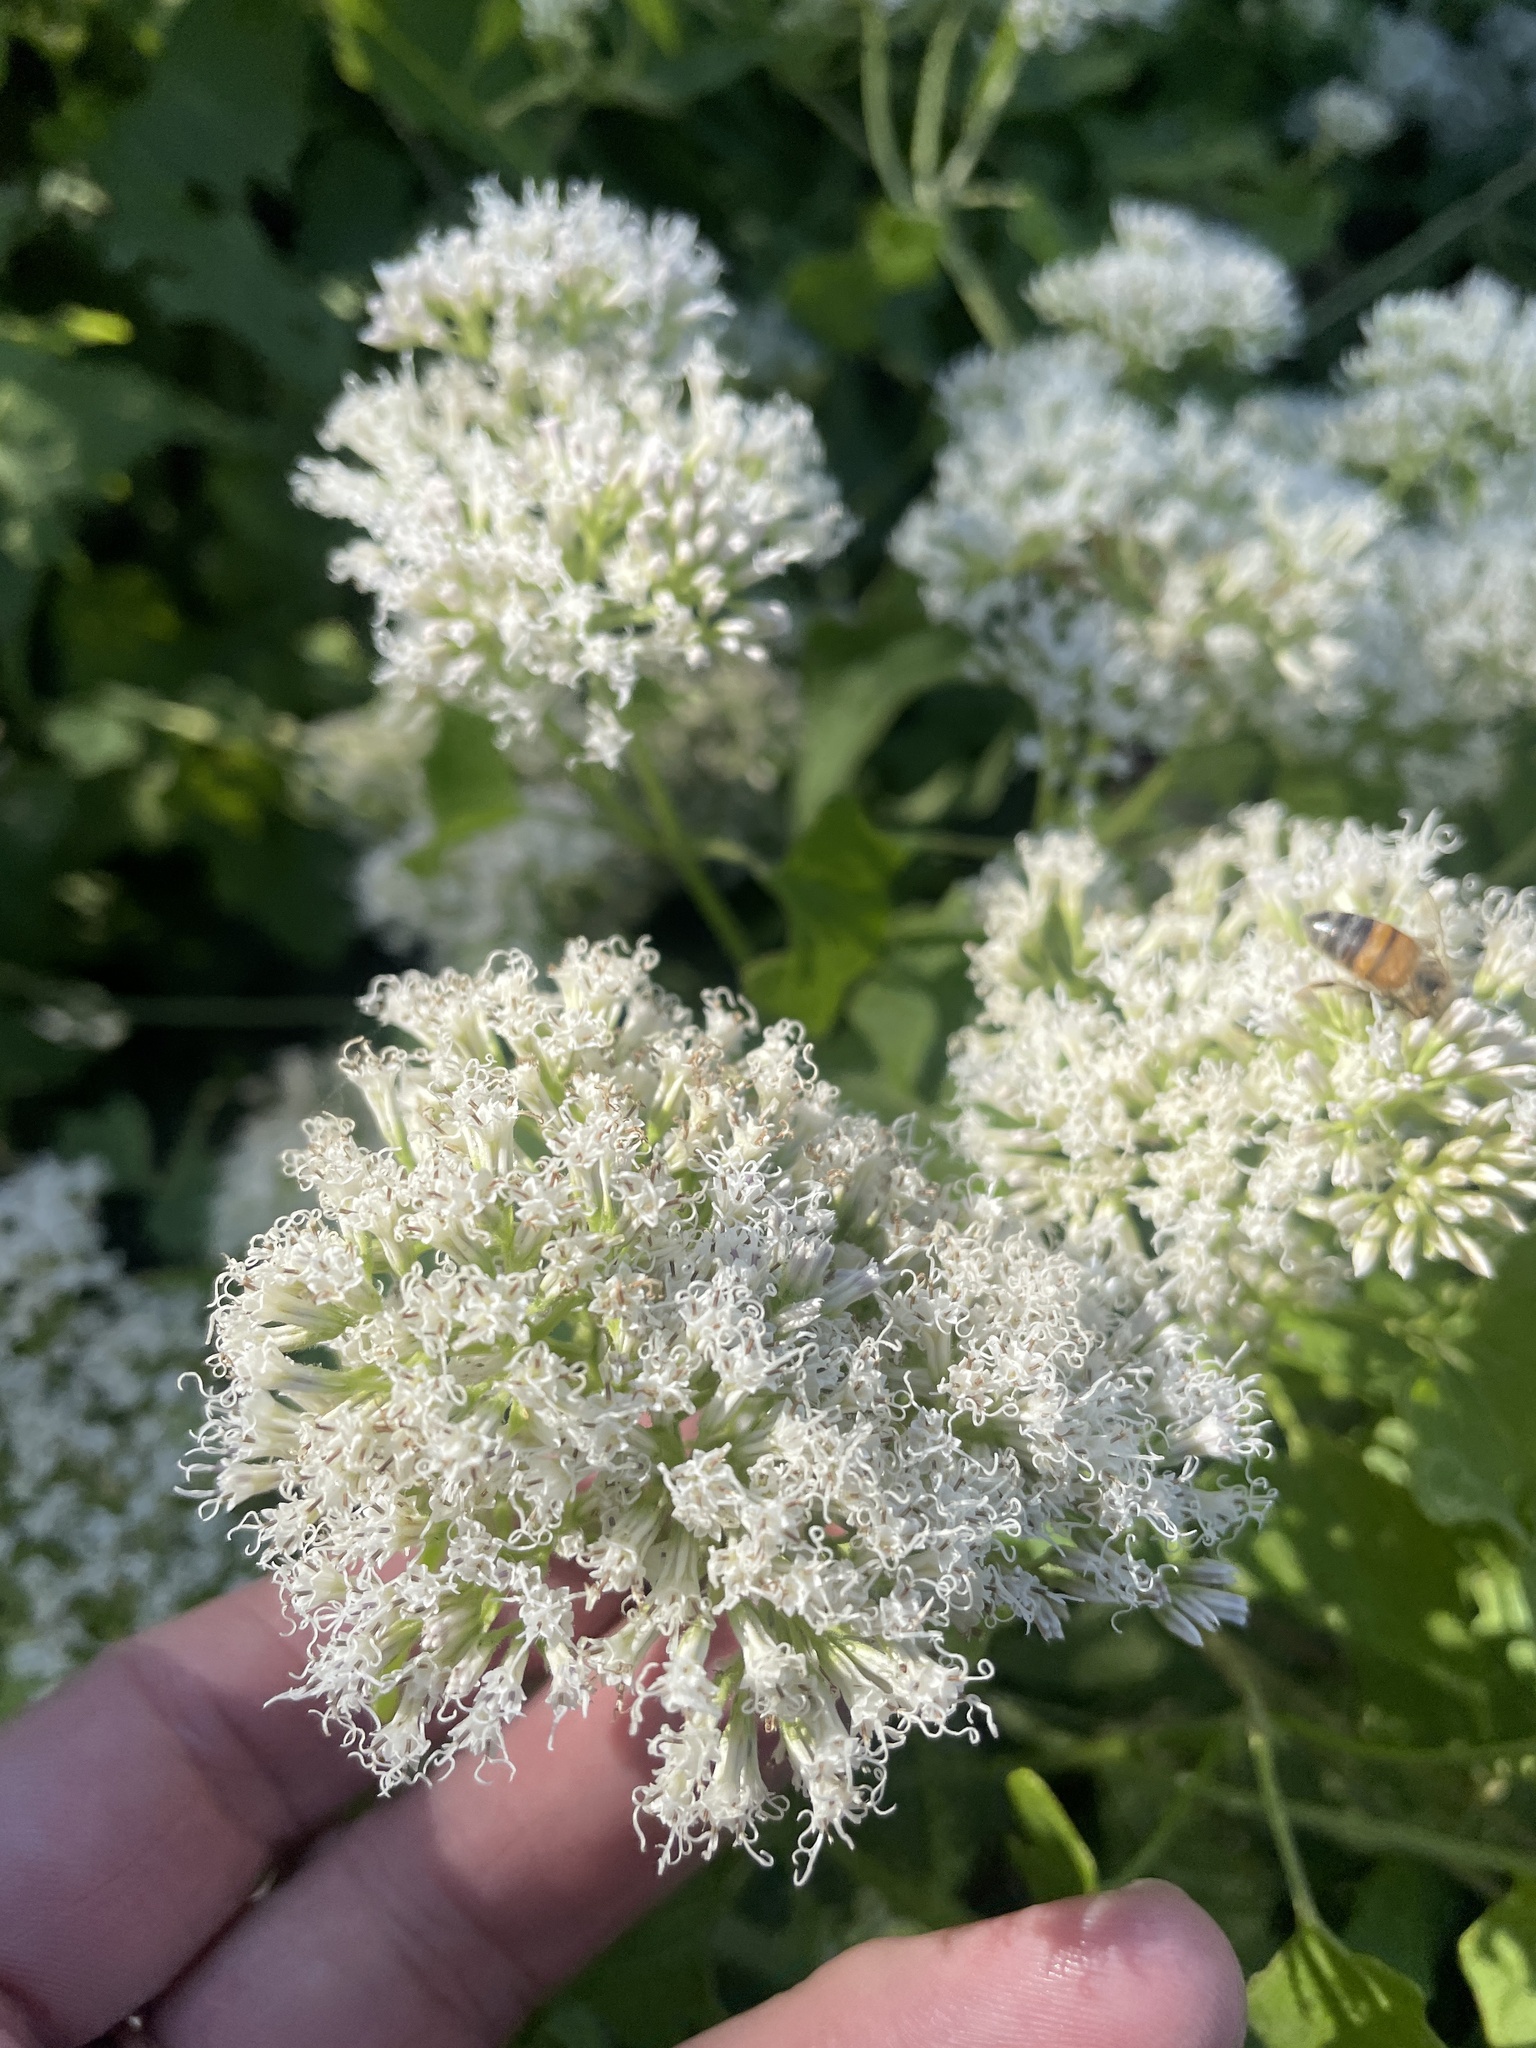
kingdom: Plantae
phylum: Tracheophyta
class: Magnoliopsida
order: Asterales
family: Asteraceae
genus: Mikania
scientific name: Mikania scandens
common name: Climbing hempvine
